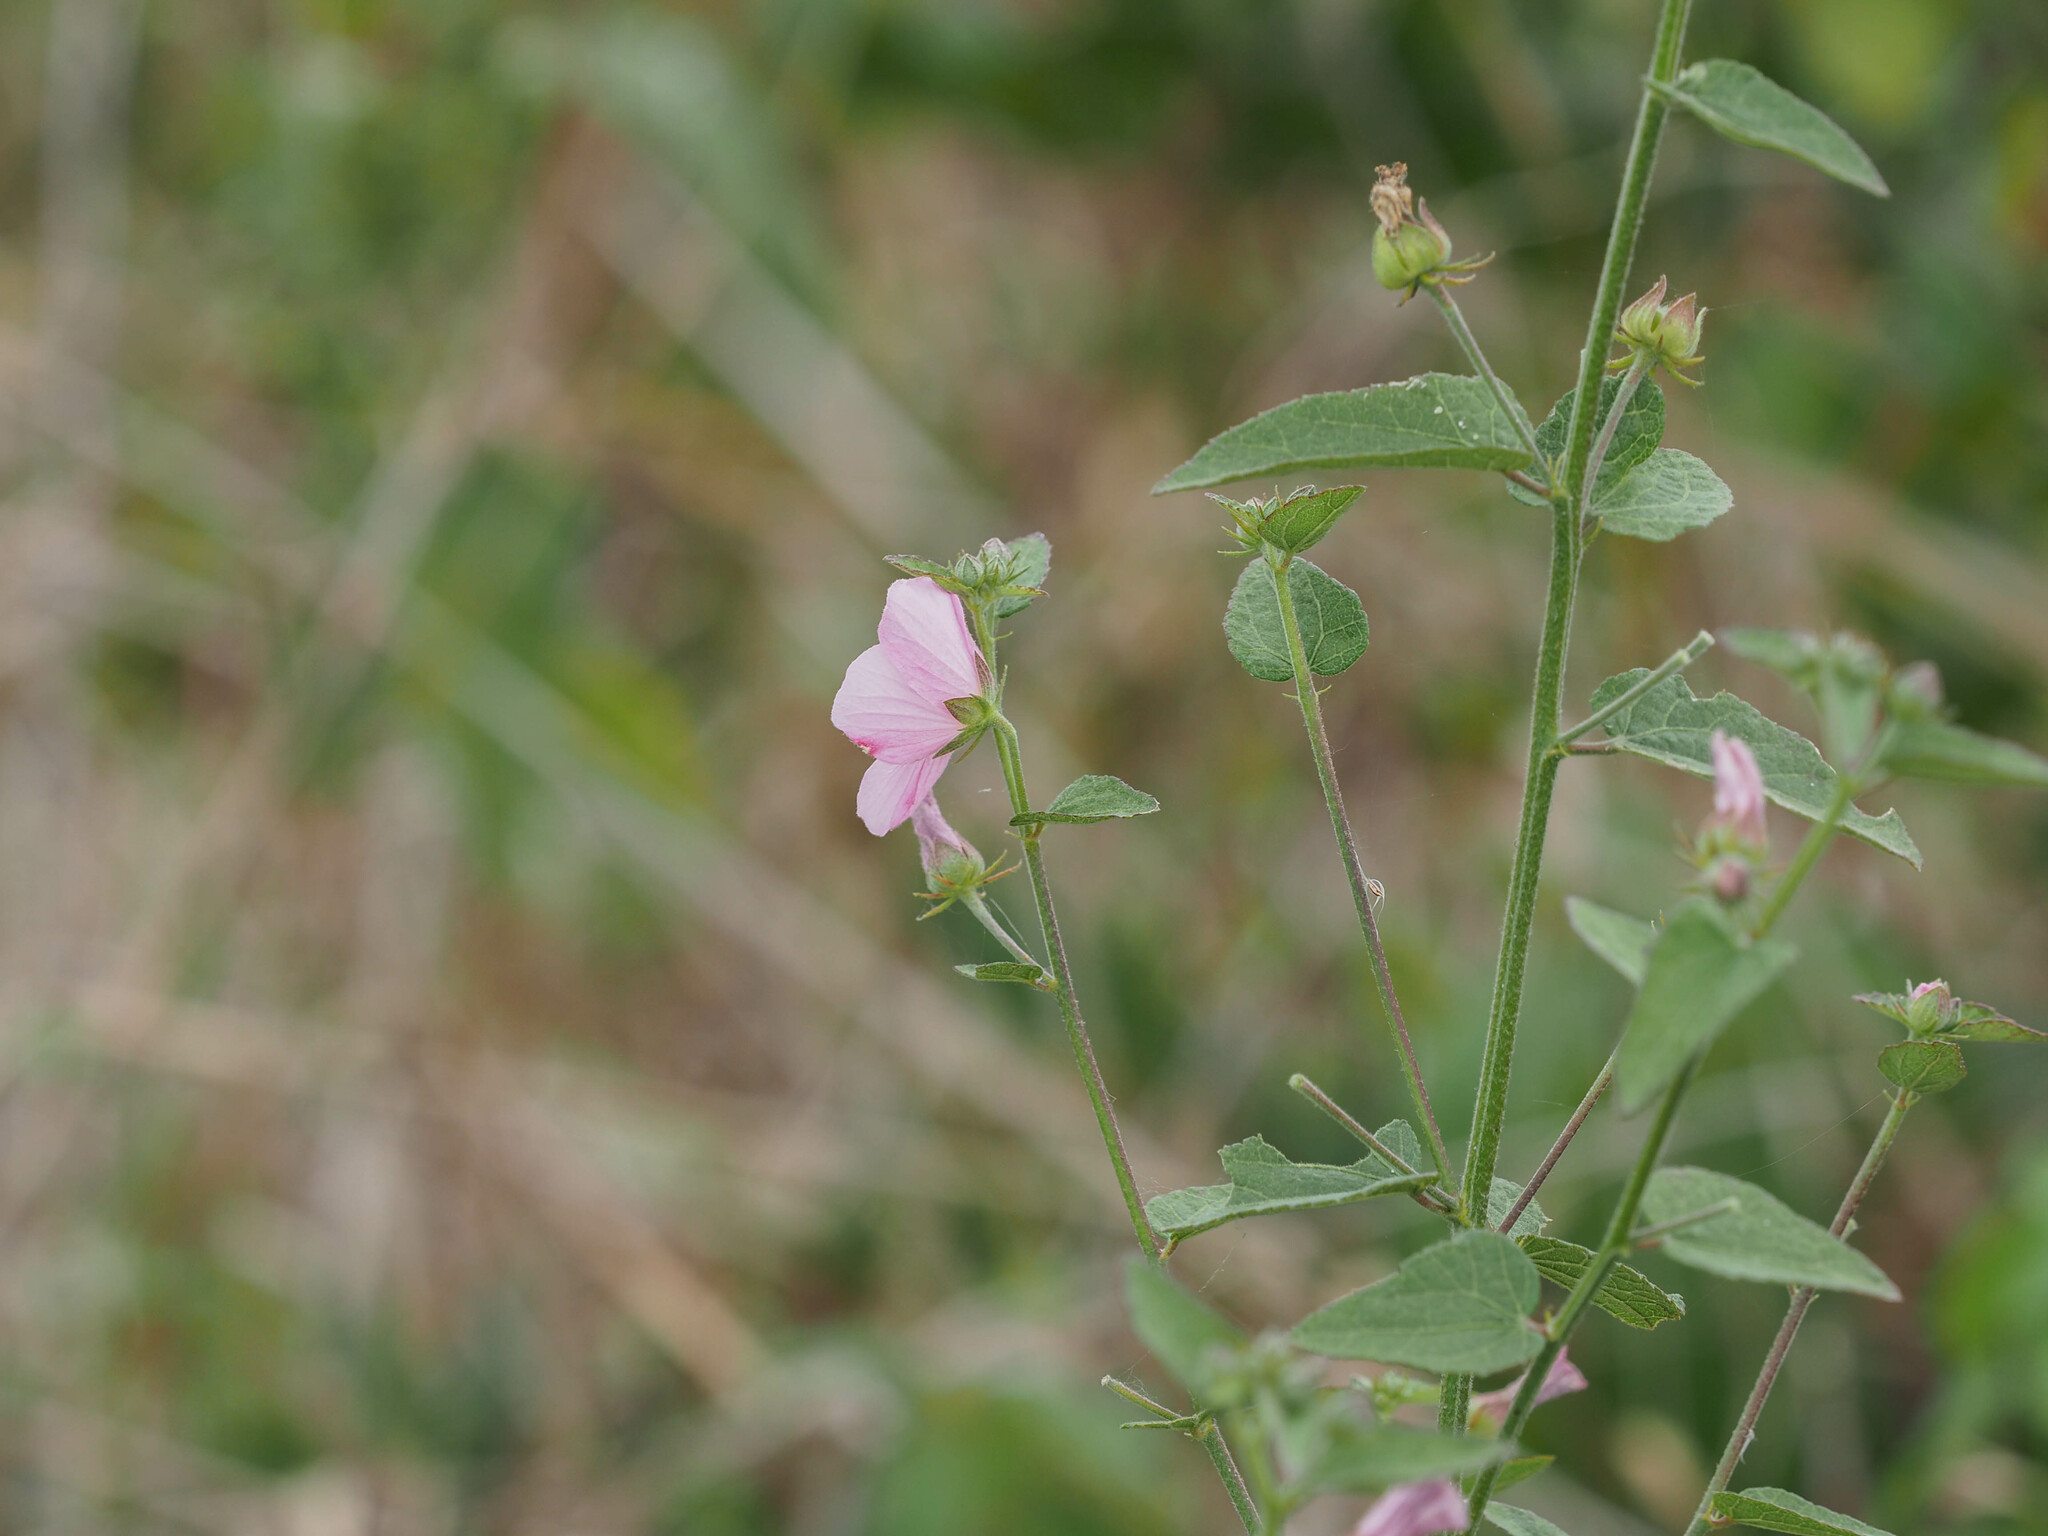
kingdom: Plantae
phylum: Tracheophyta
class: Magnoliopsida
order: Malvales
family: Malvaceae
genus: Kosteletzkya
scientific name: Kosteletzkya pentacarpos
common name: Virginia saltmarsh mallow
